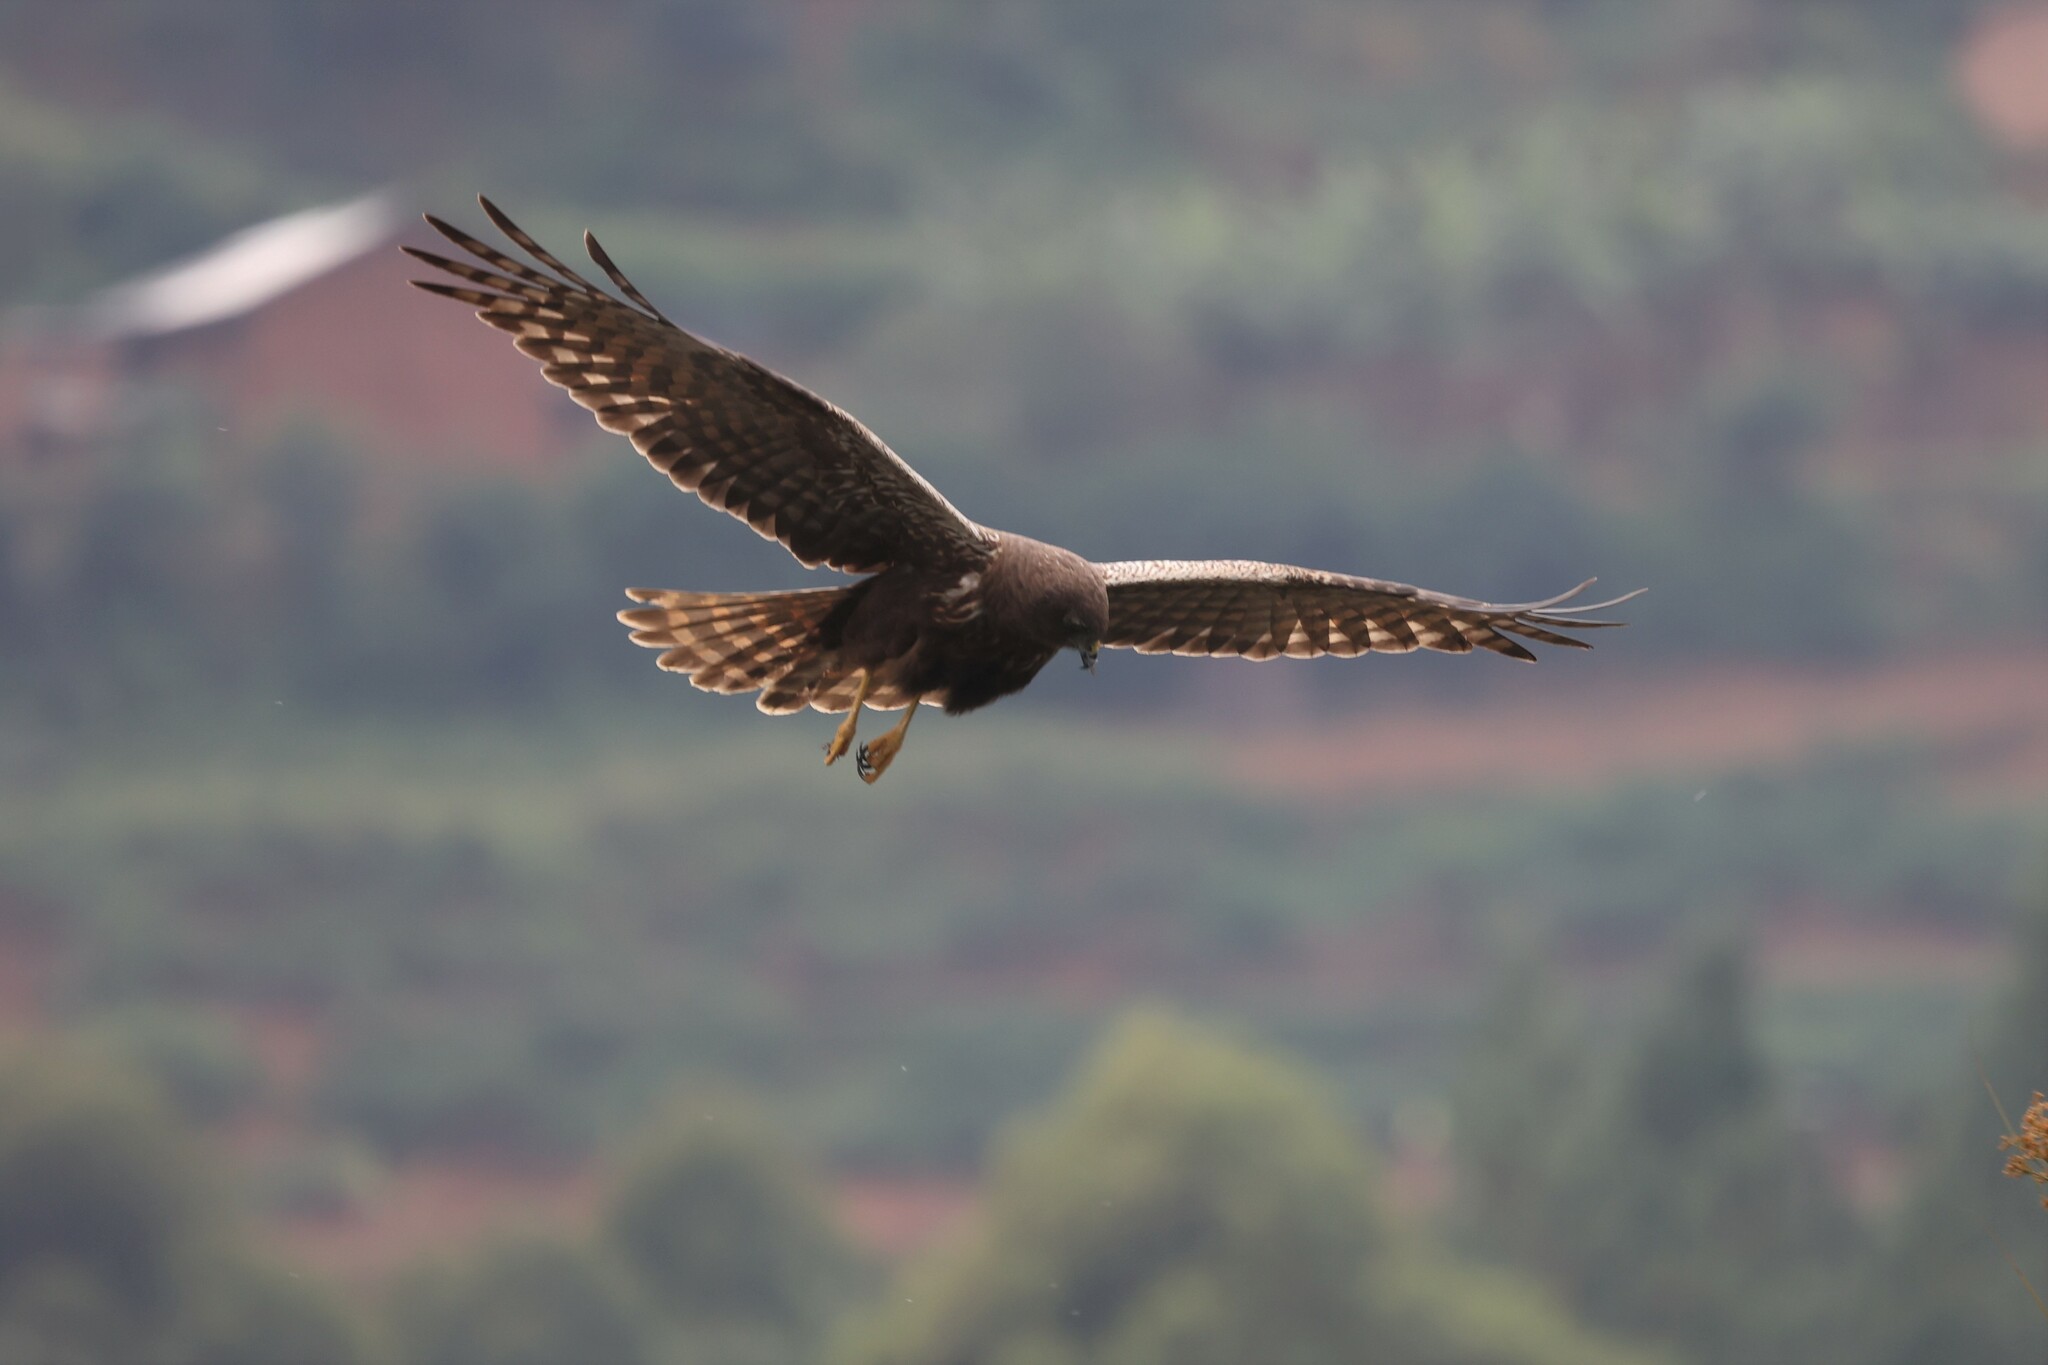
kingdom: Animalia
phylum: Chordata
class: Aves
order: Accipitriformes
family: Accipitridae
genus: Circus
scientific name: Circus ranivorus
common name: African marsh-harrier
